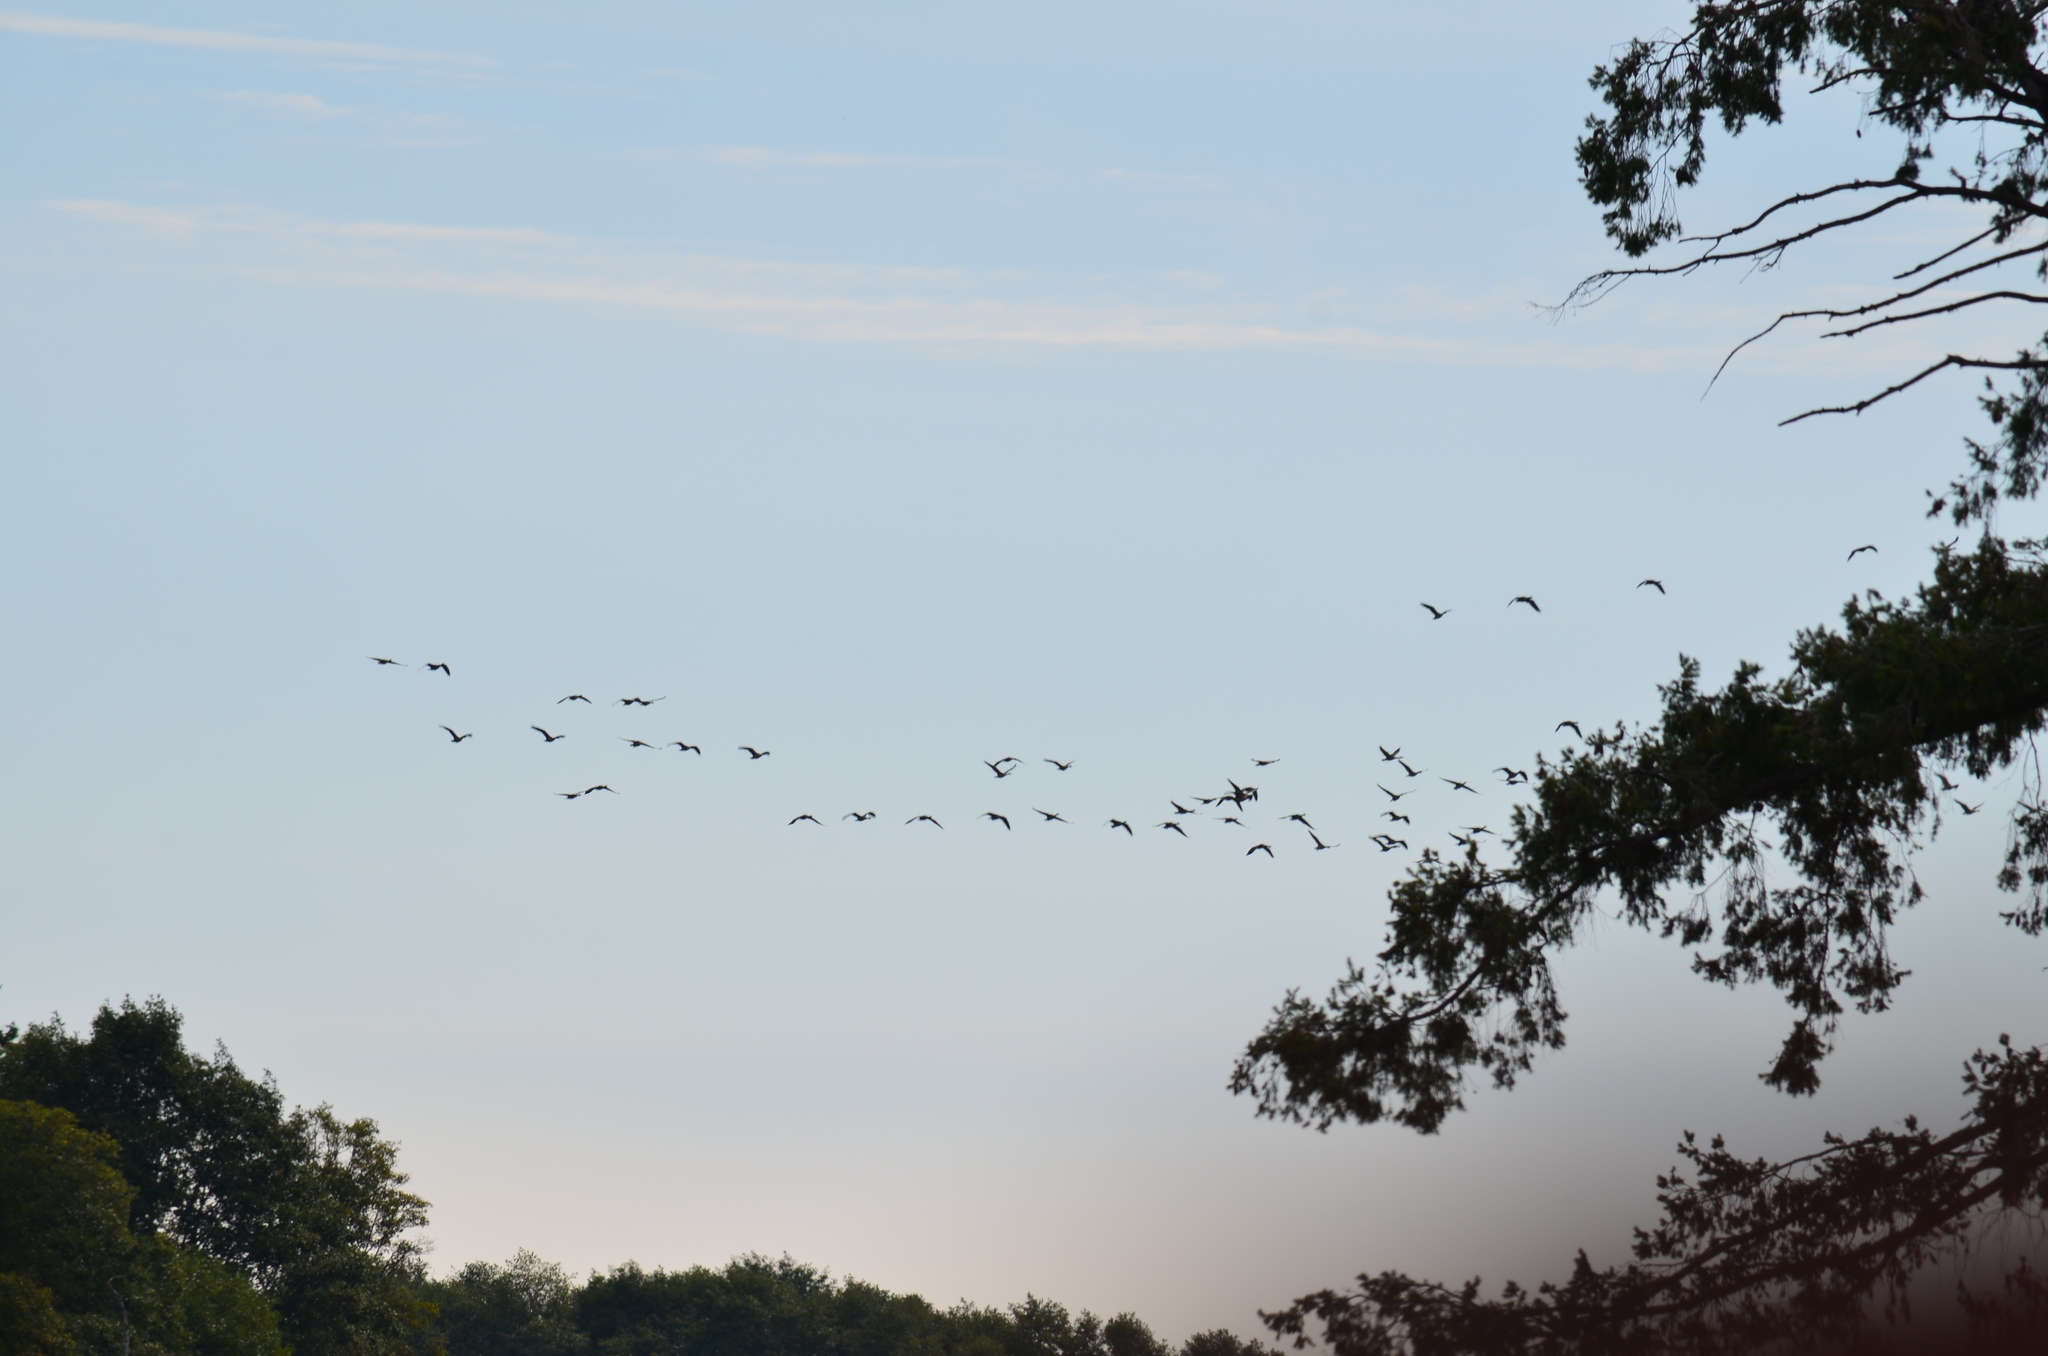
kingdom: Animalia
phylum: Chordata
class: Aves
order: Anseriformes
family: Anatidae
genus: Branta
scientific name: Branta canadensis
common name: Canada goose
